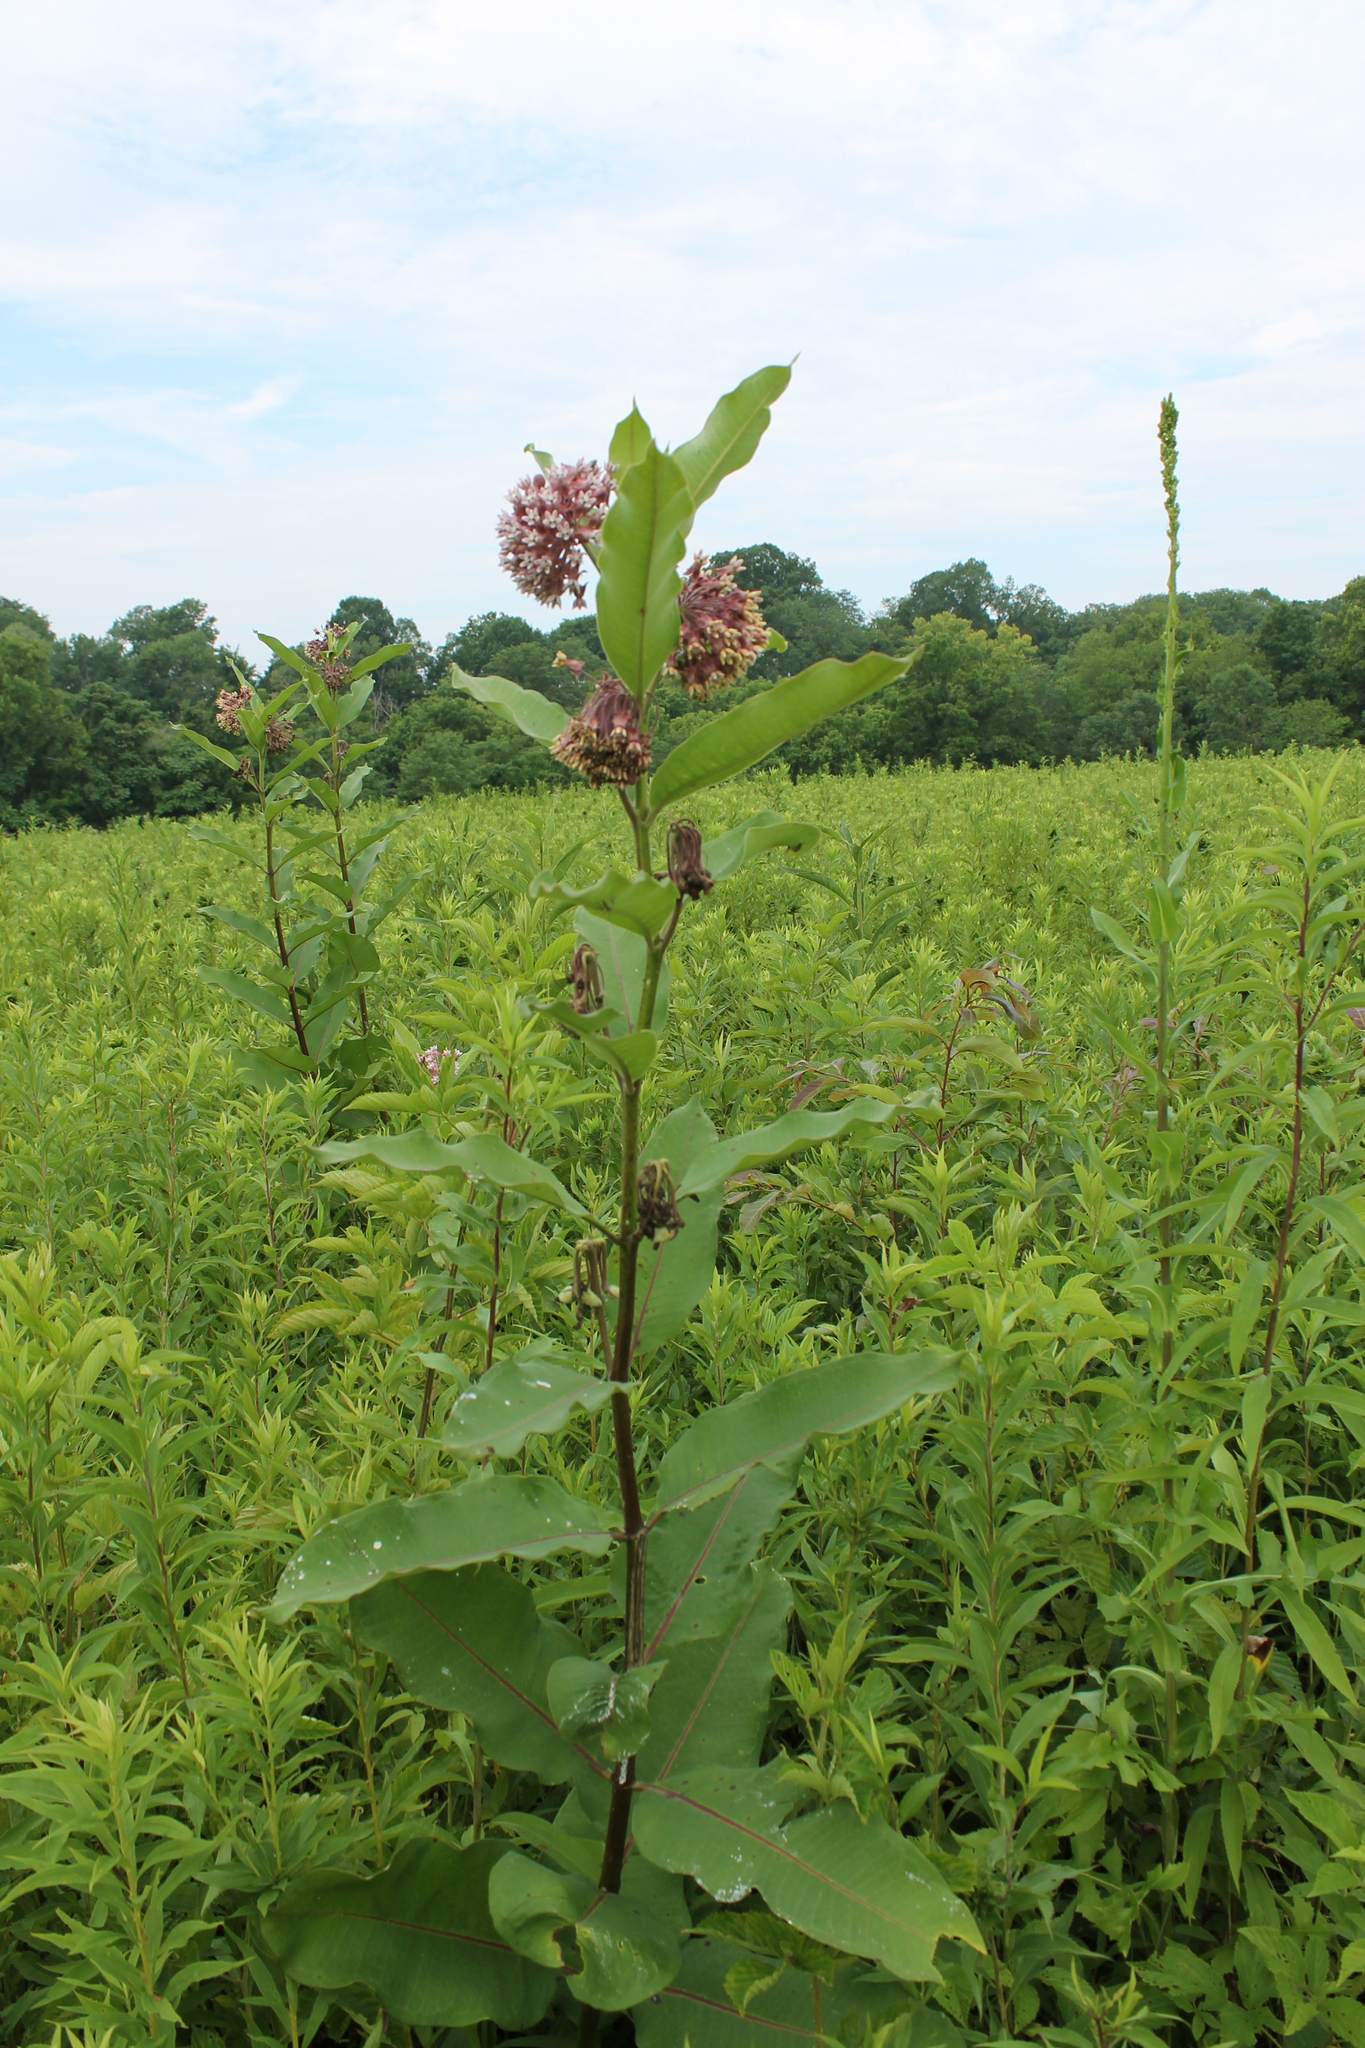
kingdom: Plantae
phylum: Tracheophyta
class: Magnoliopsida
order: Gentianales
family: Apocynaceae
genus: Asclepias
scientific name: Asclepias syriaca
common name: Common milkweed
